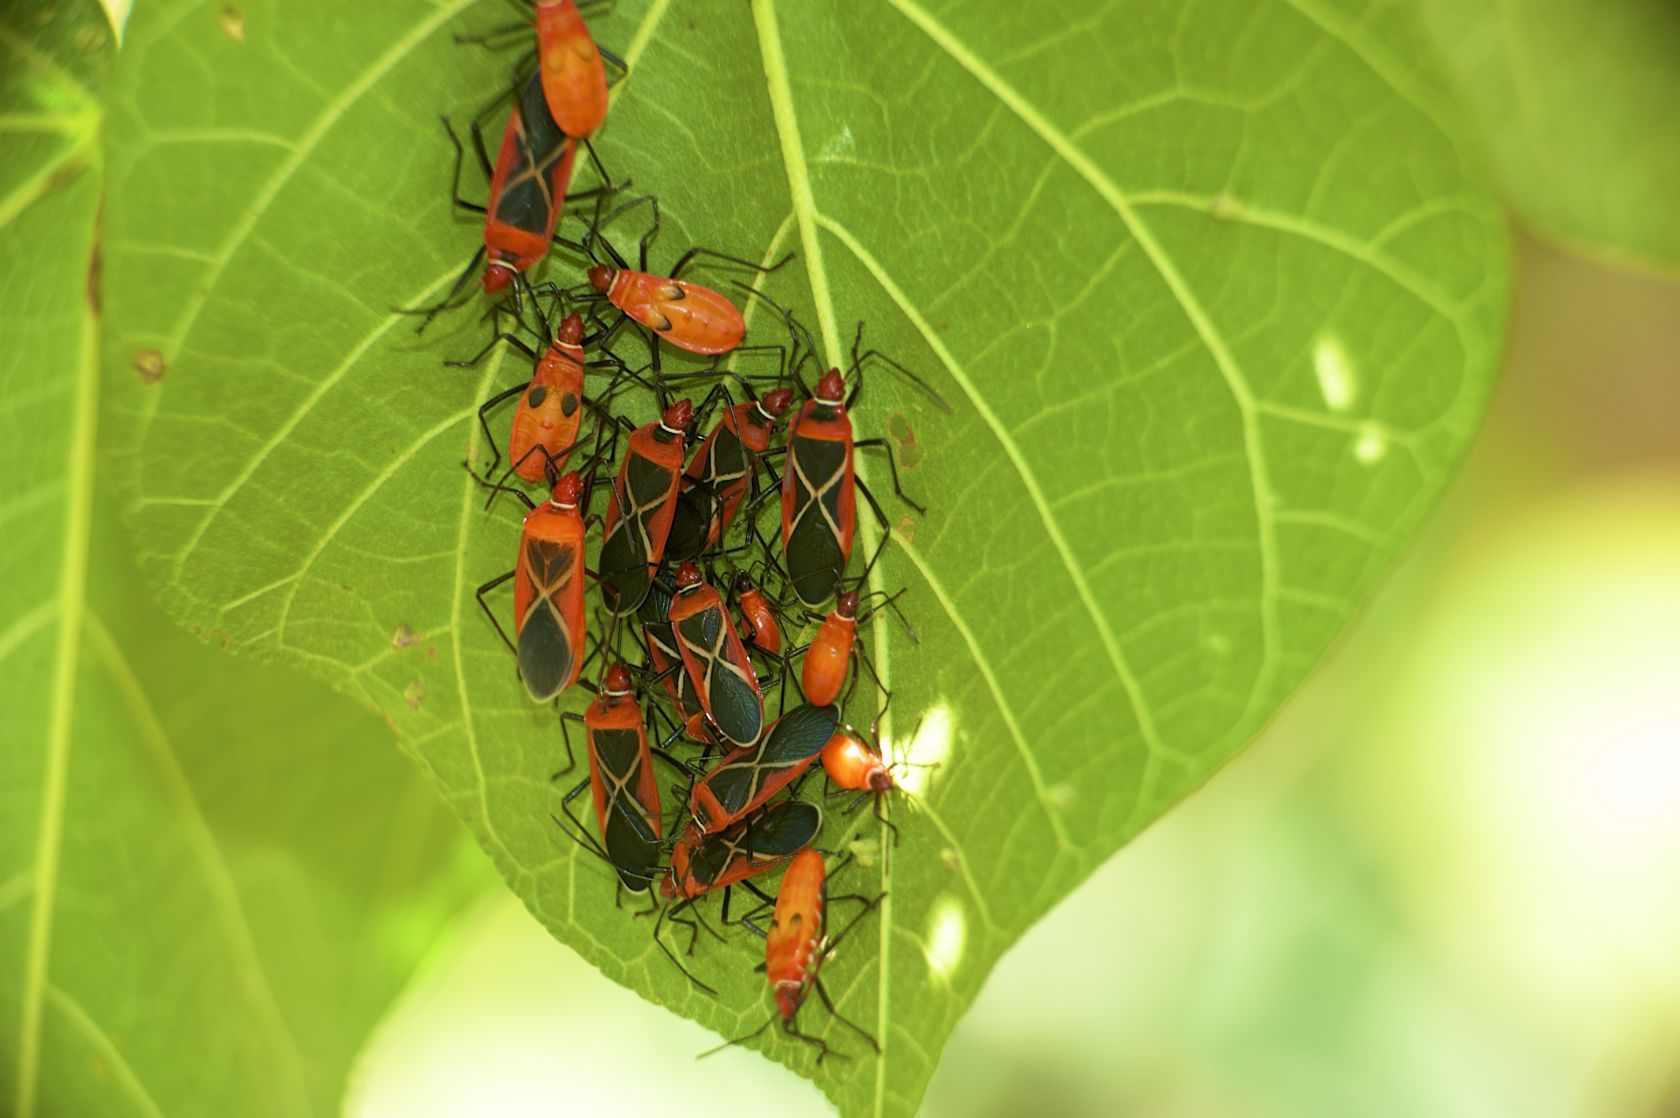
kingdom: Animalia
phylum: Arthropoda
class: Insecta
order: Hemiptera
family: Pyrrhocoridae
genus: Dysdercus
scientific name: Dysdercus decussatus
